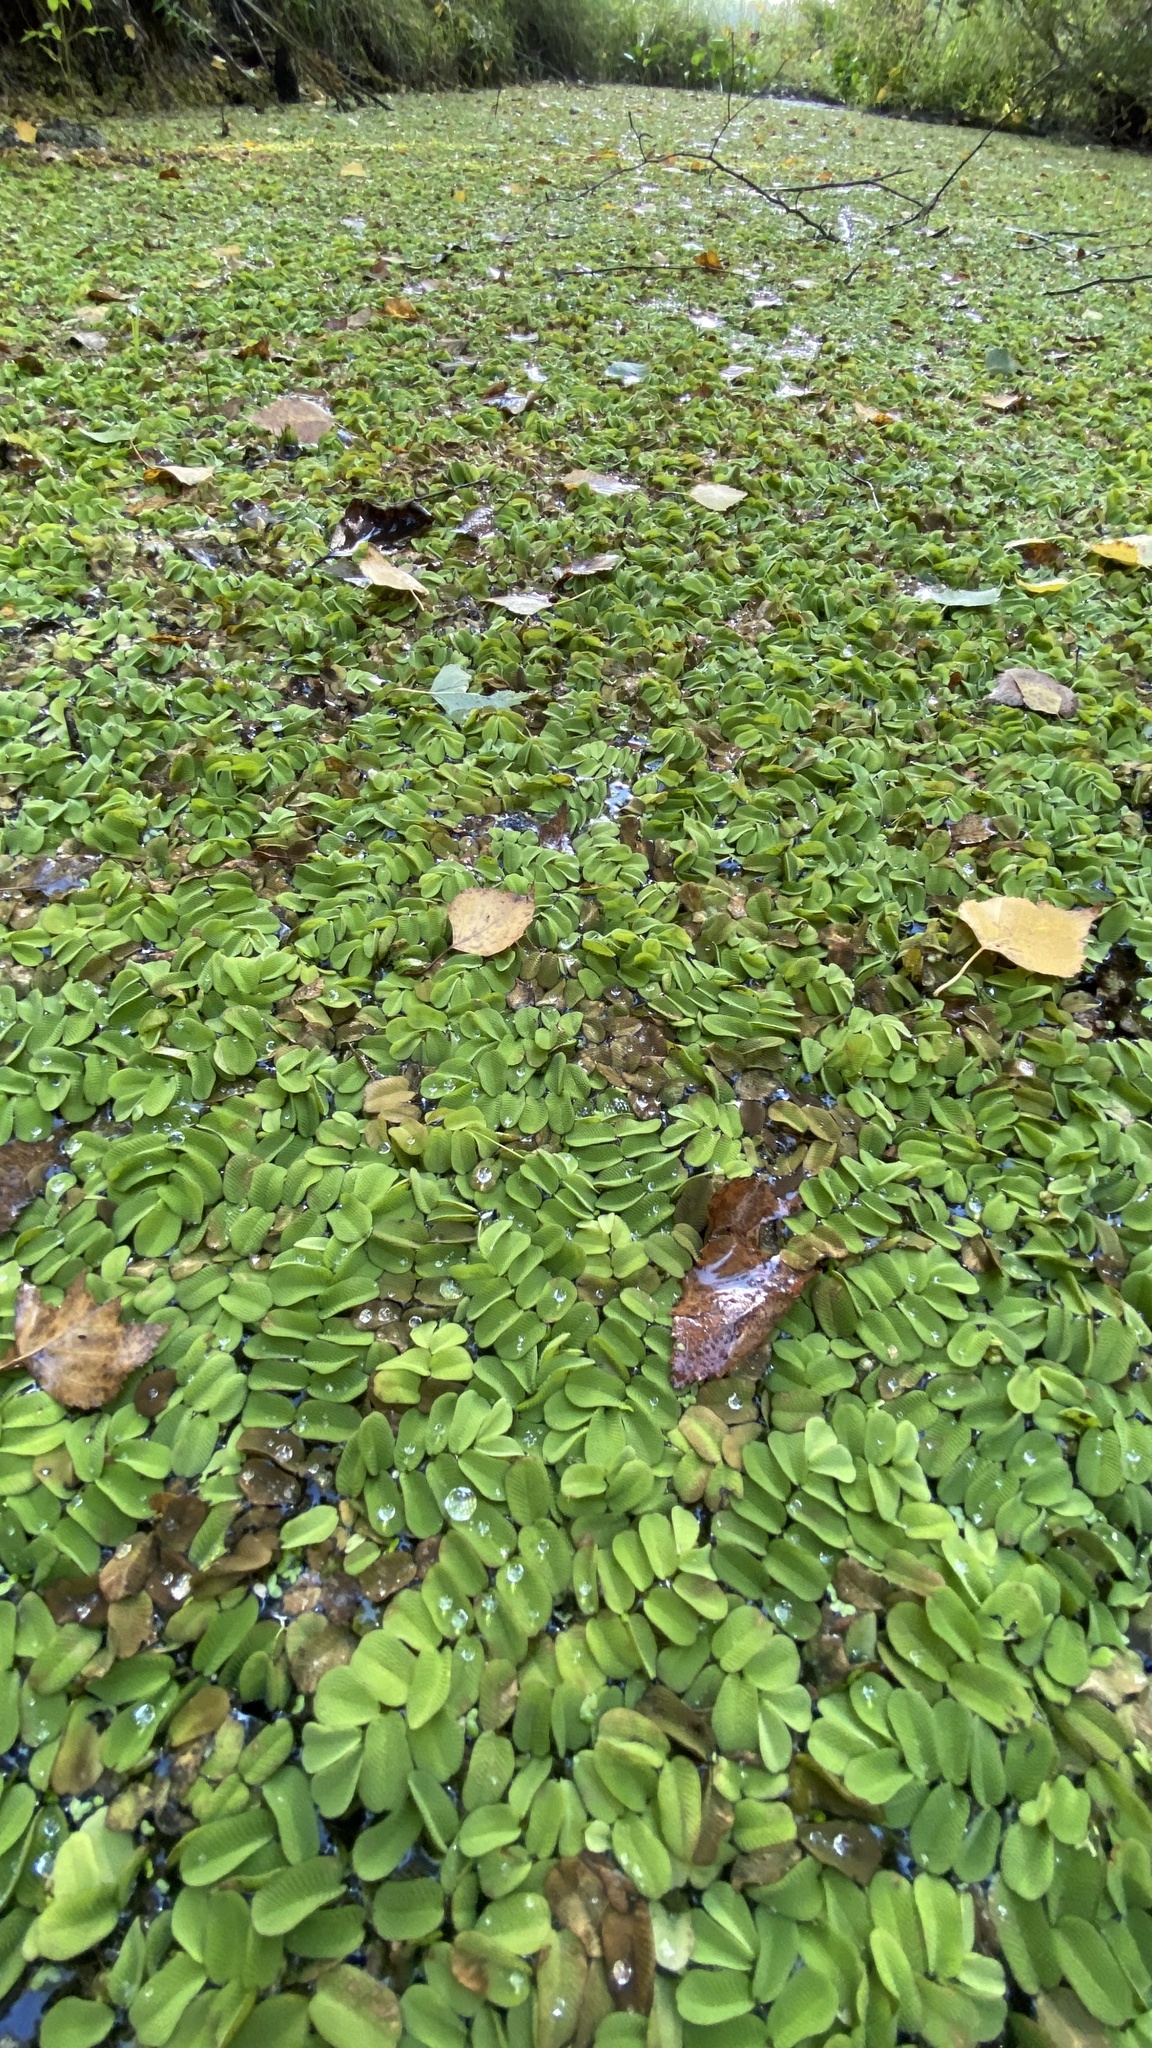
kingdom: Plantae
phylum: Tracheophyta
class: Polypodiopsida
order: Salviniales
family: Salviniaceae
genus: Salvinia
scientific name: Salvinia natans
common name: Floating fern
